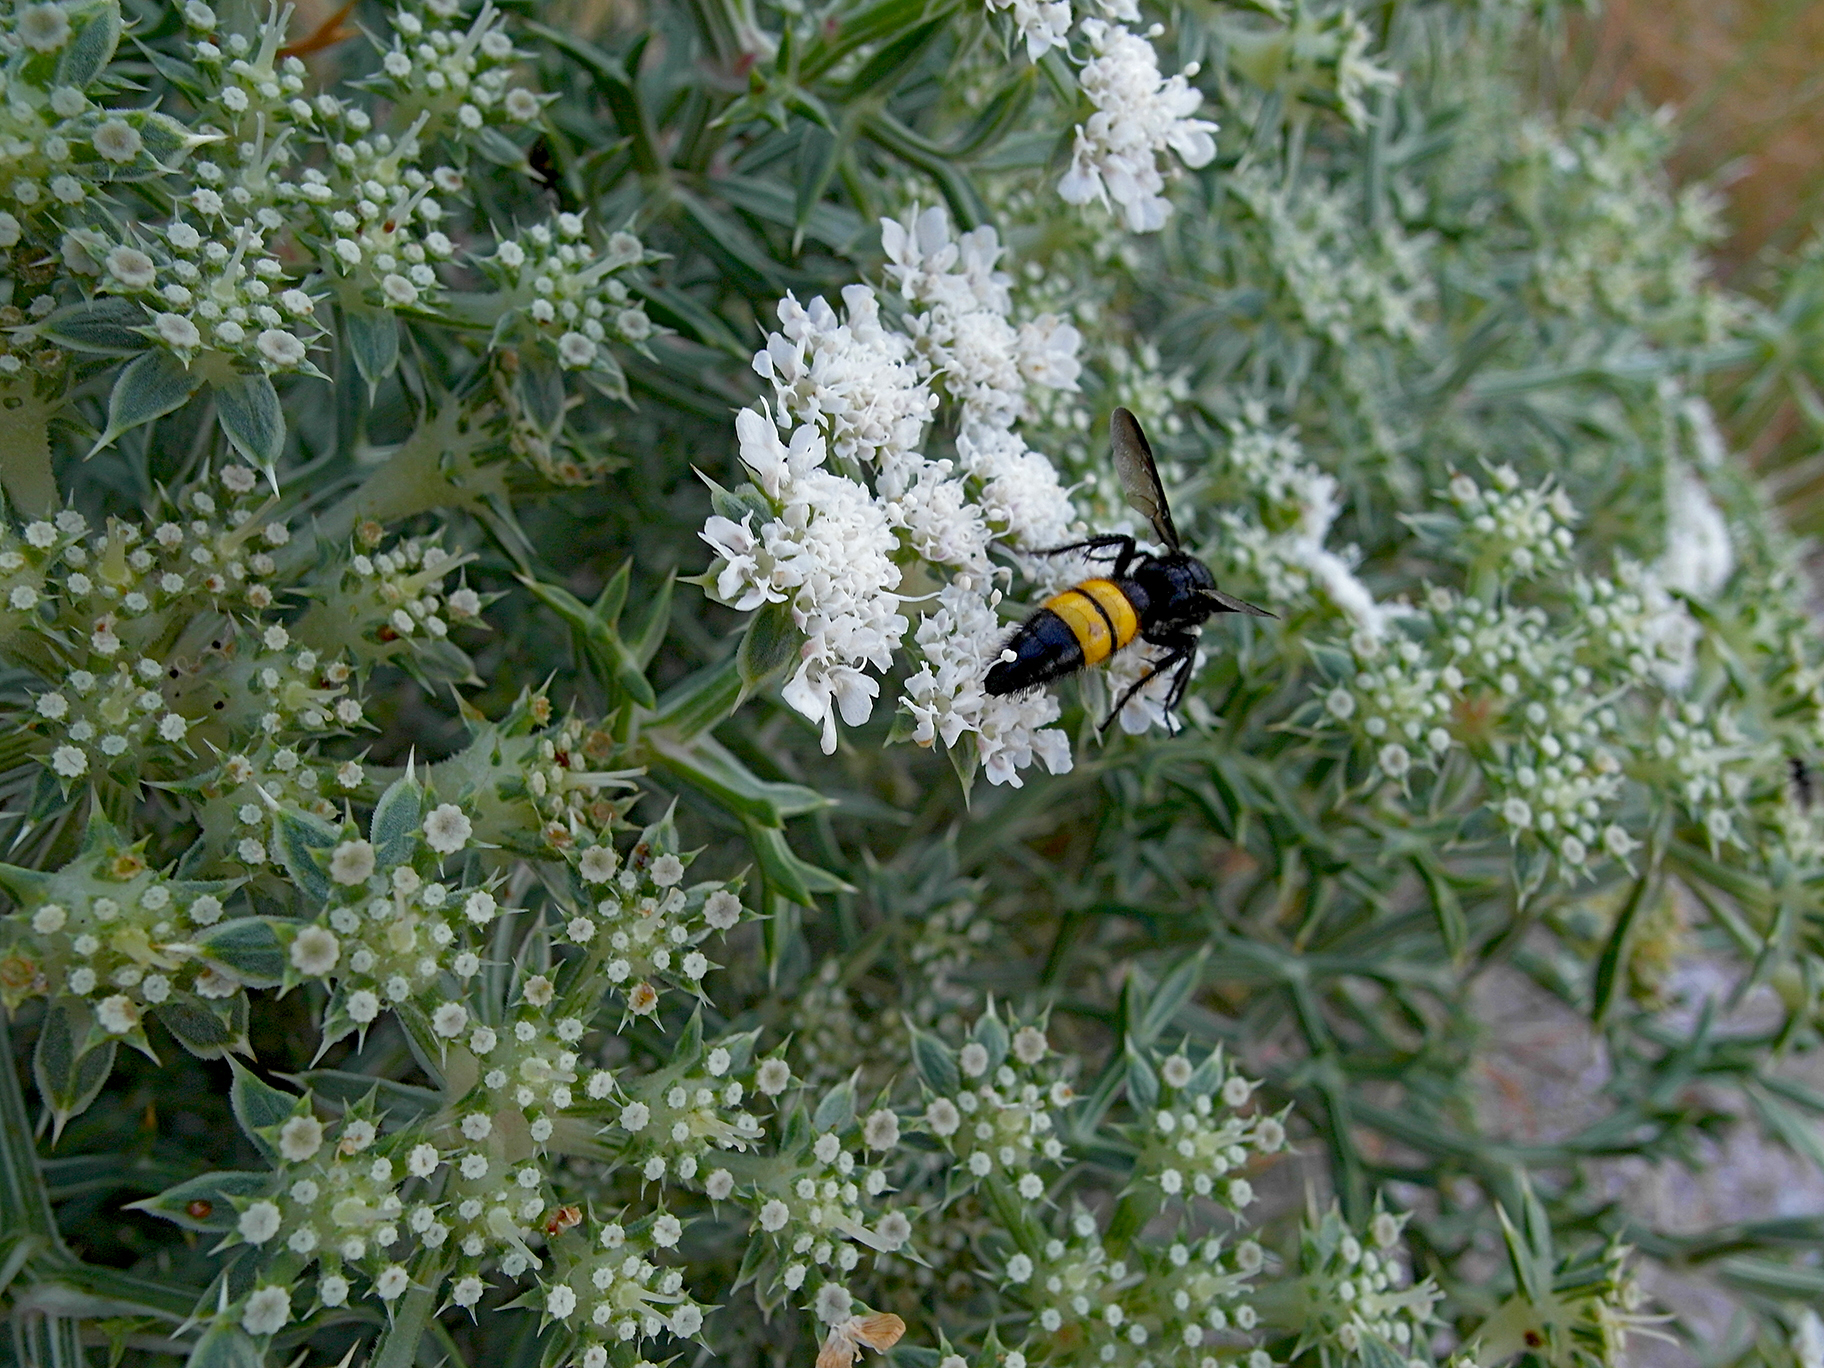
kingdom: Plantae
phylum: Tracheophyta
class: Magnoliopsida
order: Apiales
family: Apiaceae
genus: Echinophora
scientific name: Echinophora spinosa
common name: Prickly samphire
